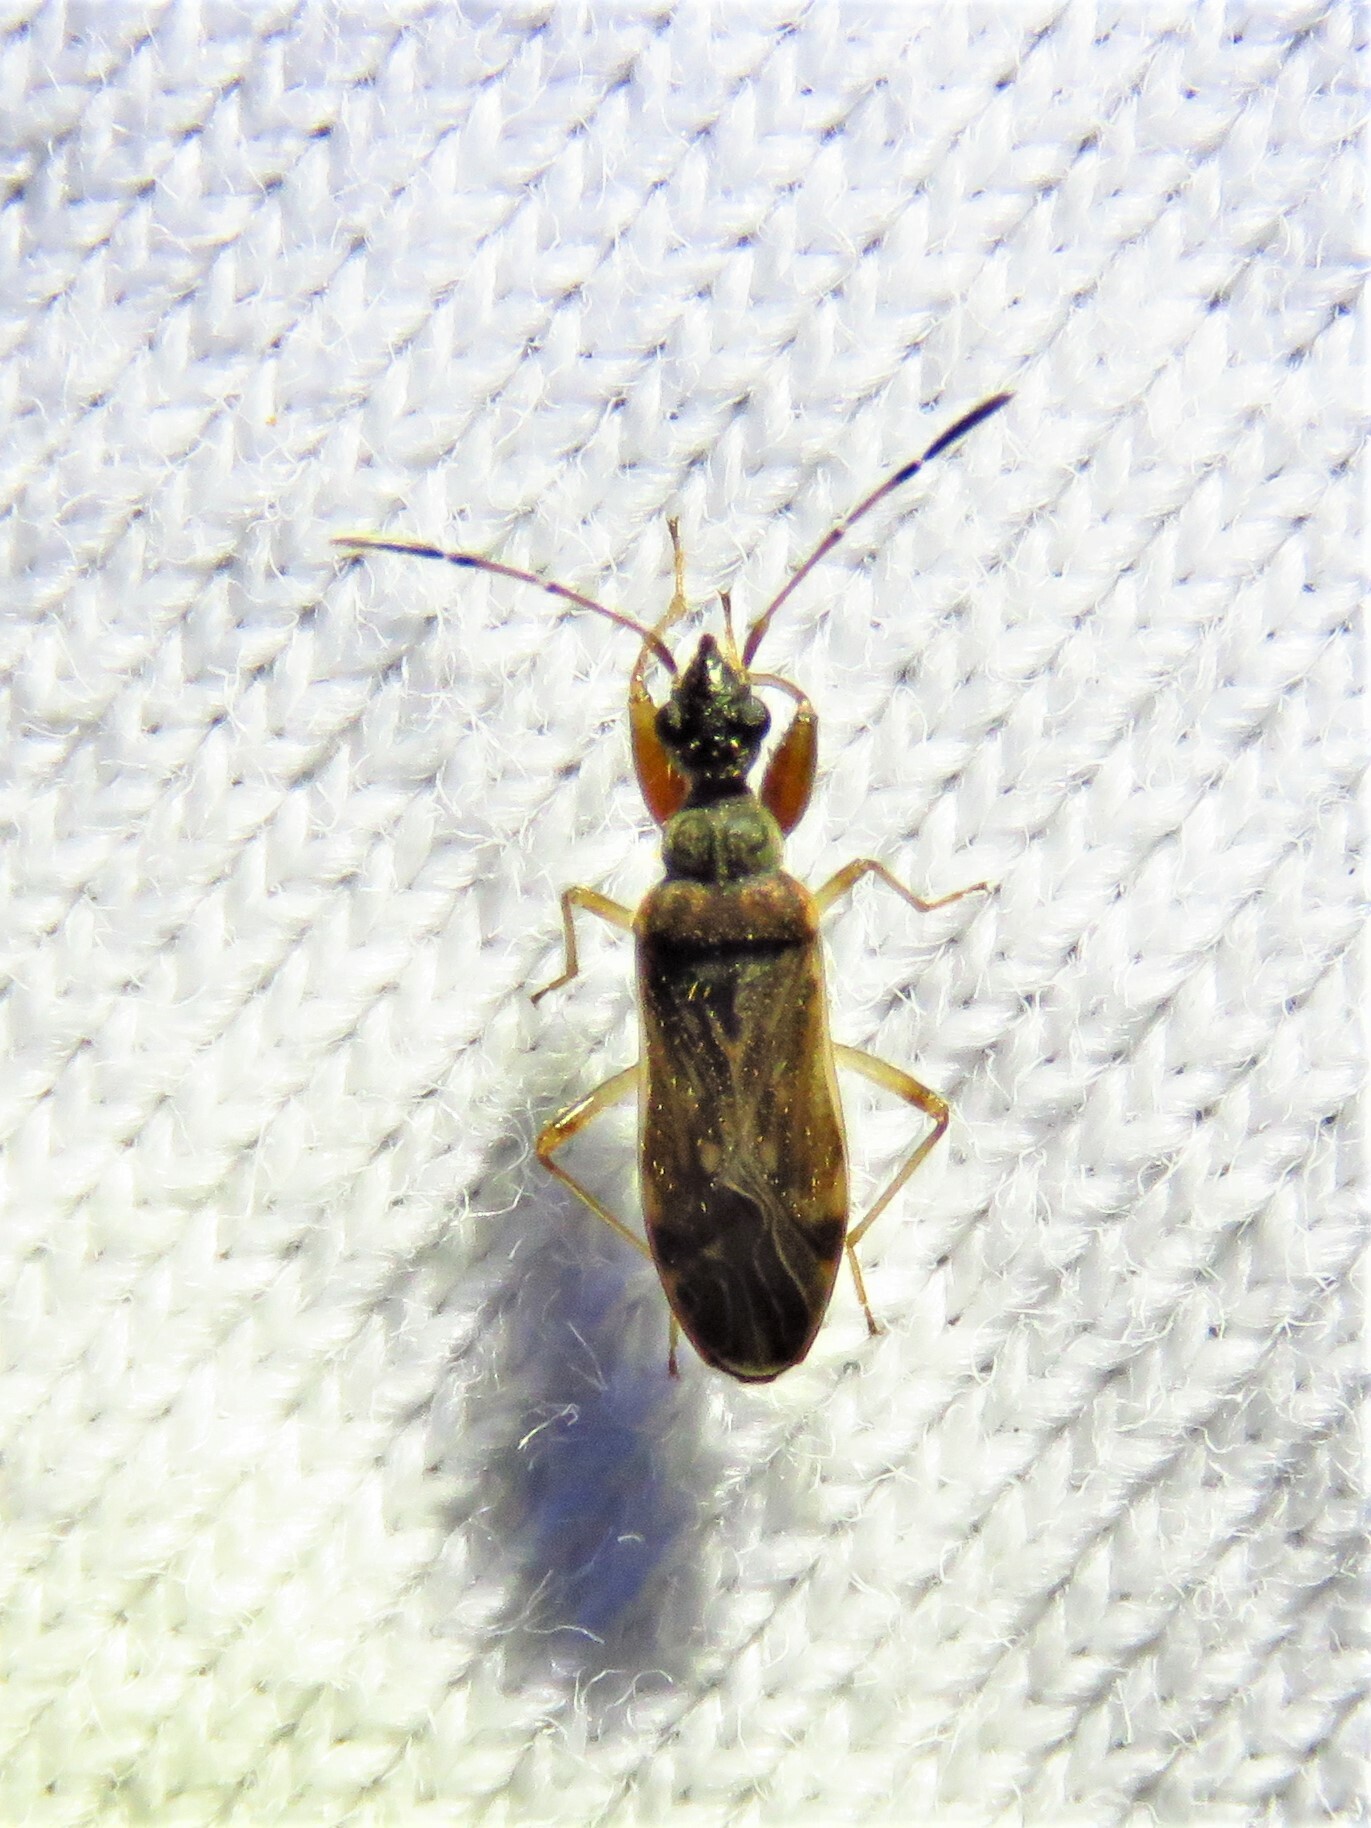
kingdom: Animalia
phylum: Arthropoda
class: Insecta
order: Hemiptera
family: Rhyparochromidae
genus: Heraeus
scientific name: Heraeus plebejus
